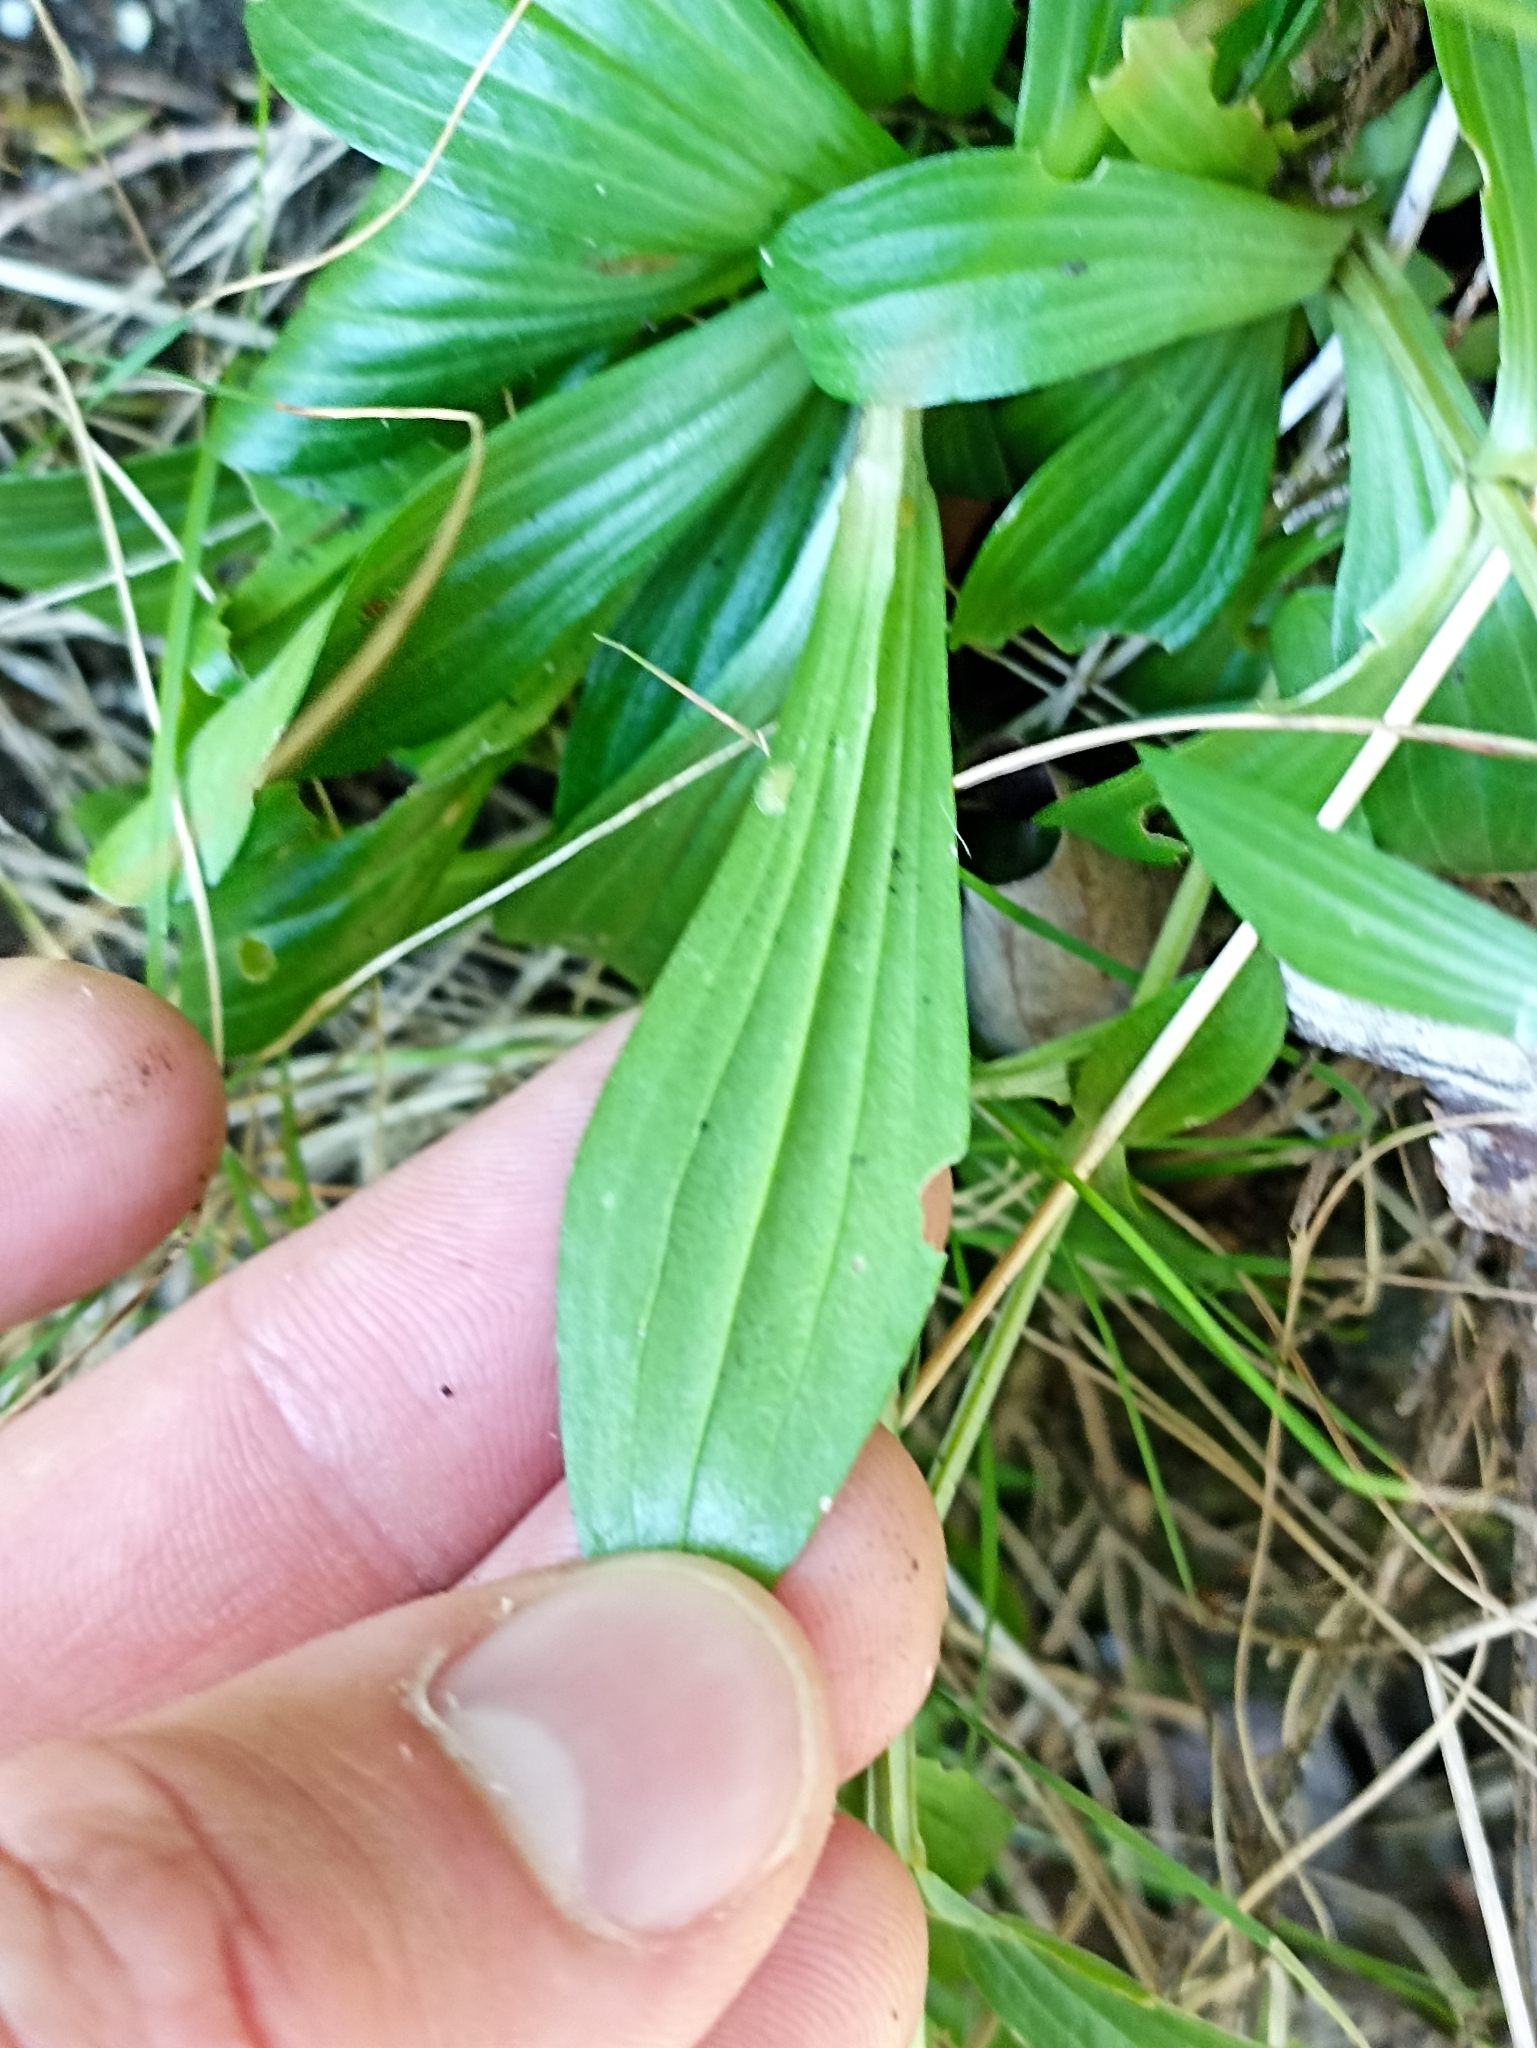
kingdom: Plantae
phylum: Tracheophyta
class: Magnoliopsida
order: Gentianales
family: Gentianaceae
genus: Centaurium
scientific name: Centaurium erythraea
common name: Common centaury
